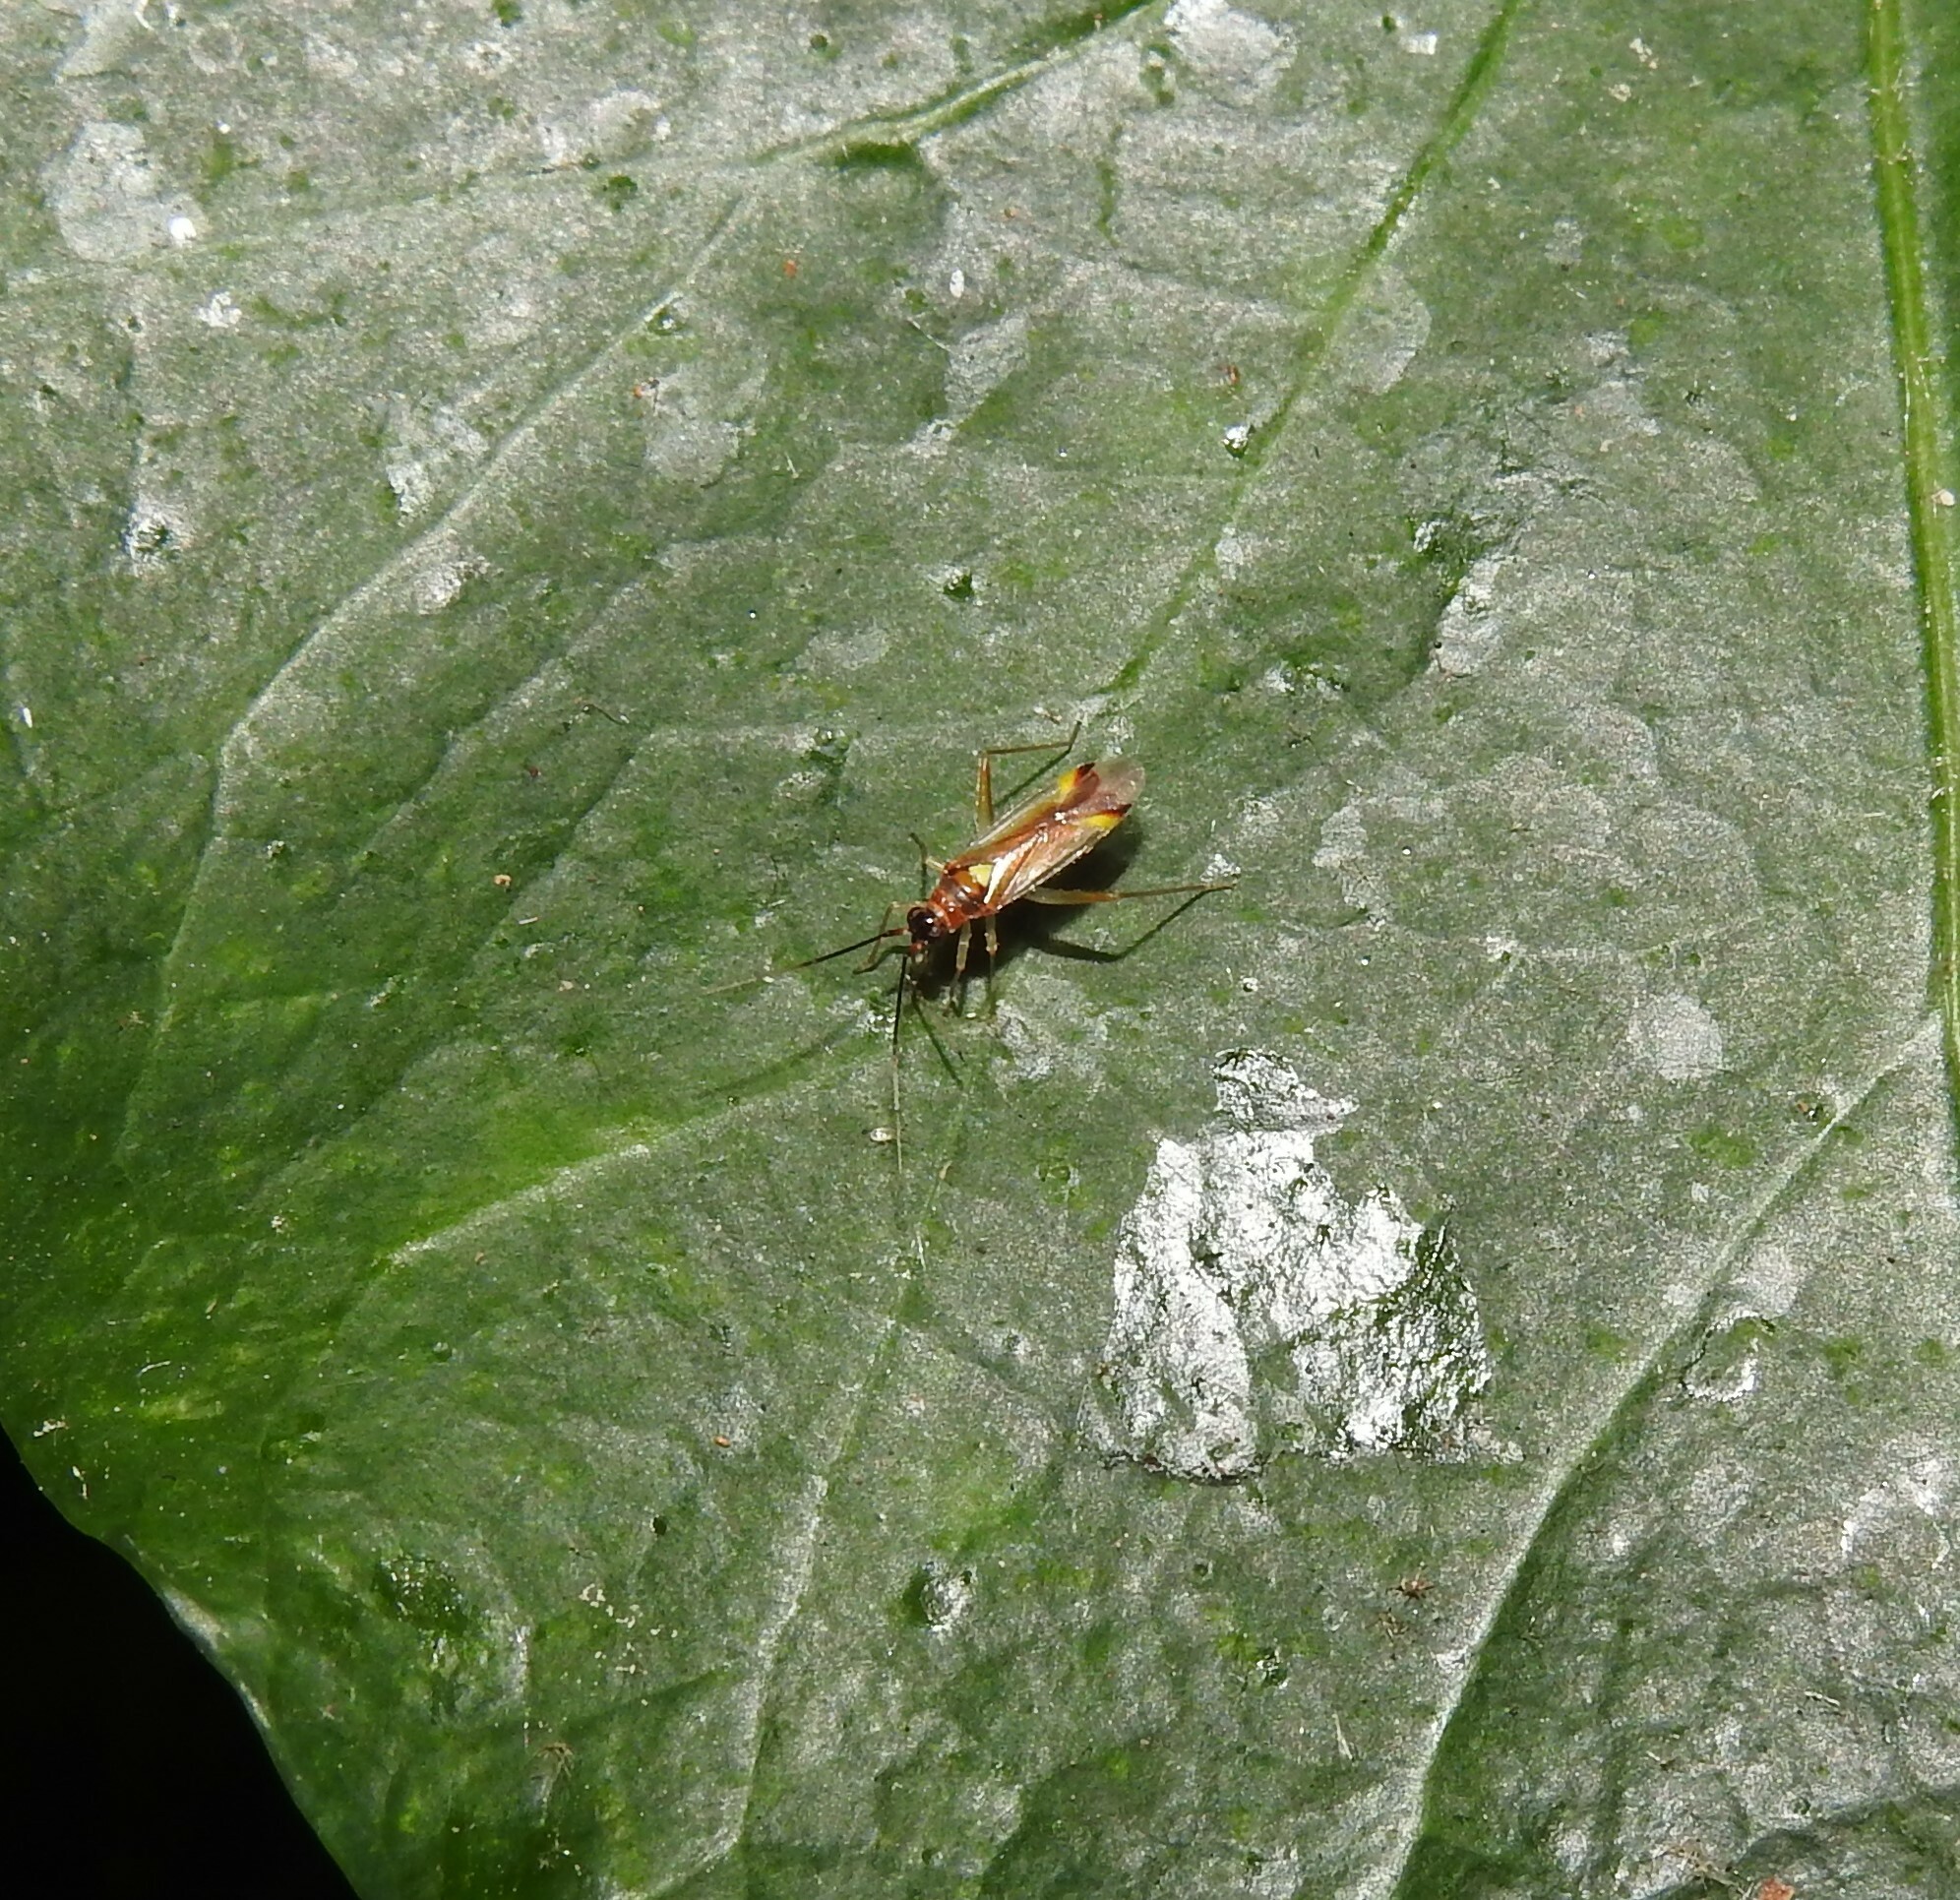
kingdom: Animalia
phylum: Arthropoda
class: Insecta
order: Hemiptera
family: Miridae
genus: Campyloneura
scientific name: Campyloneura virgula
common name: Predatory bug
